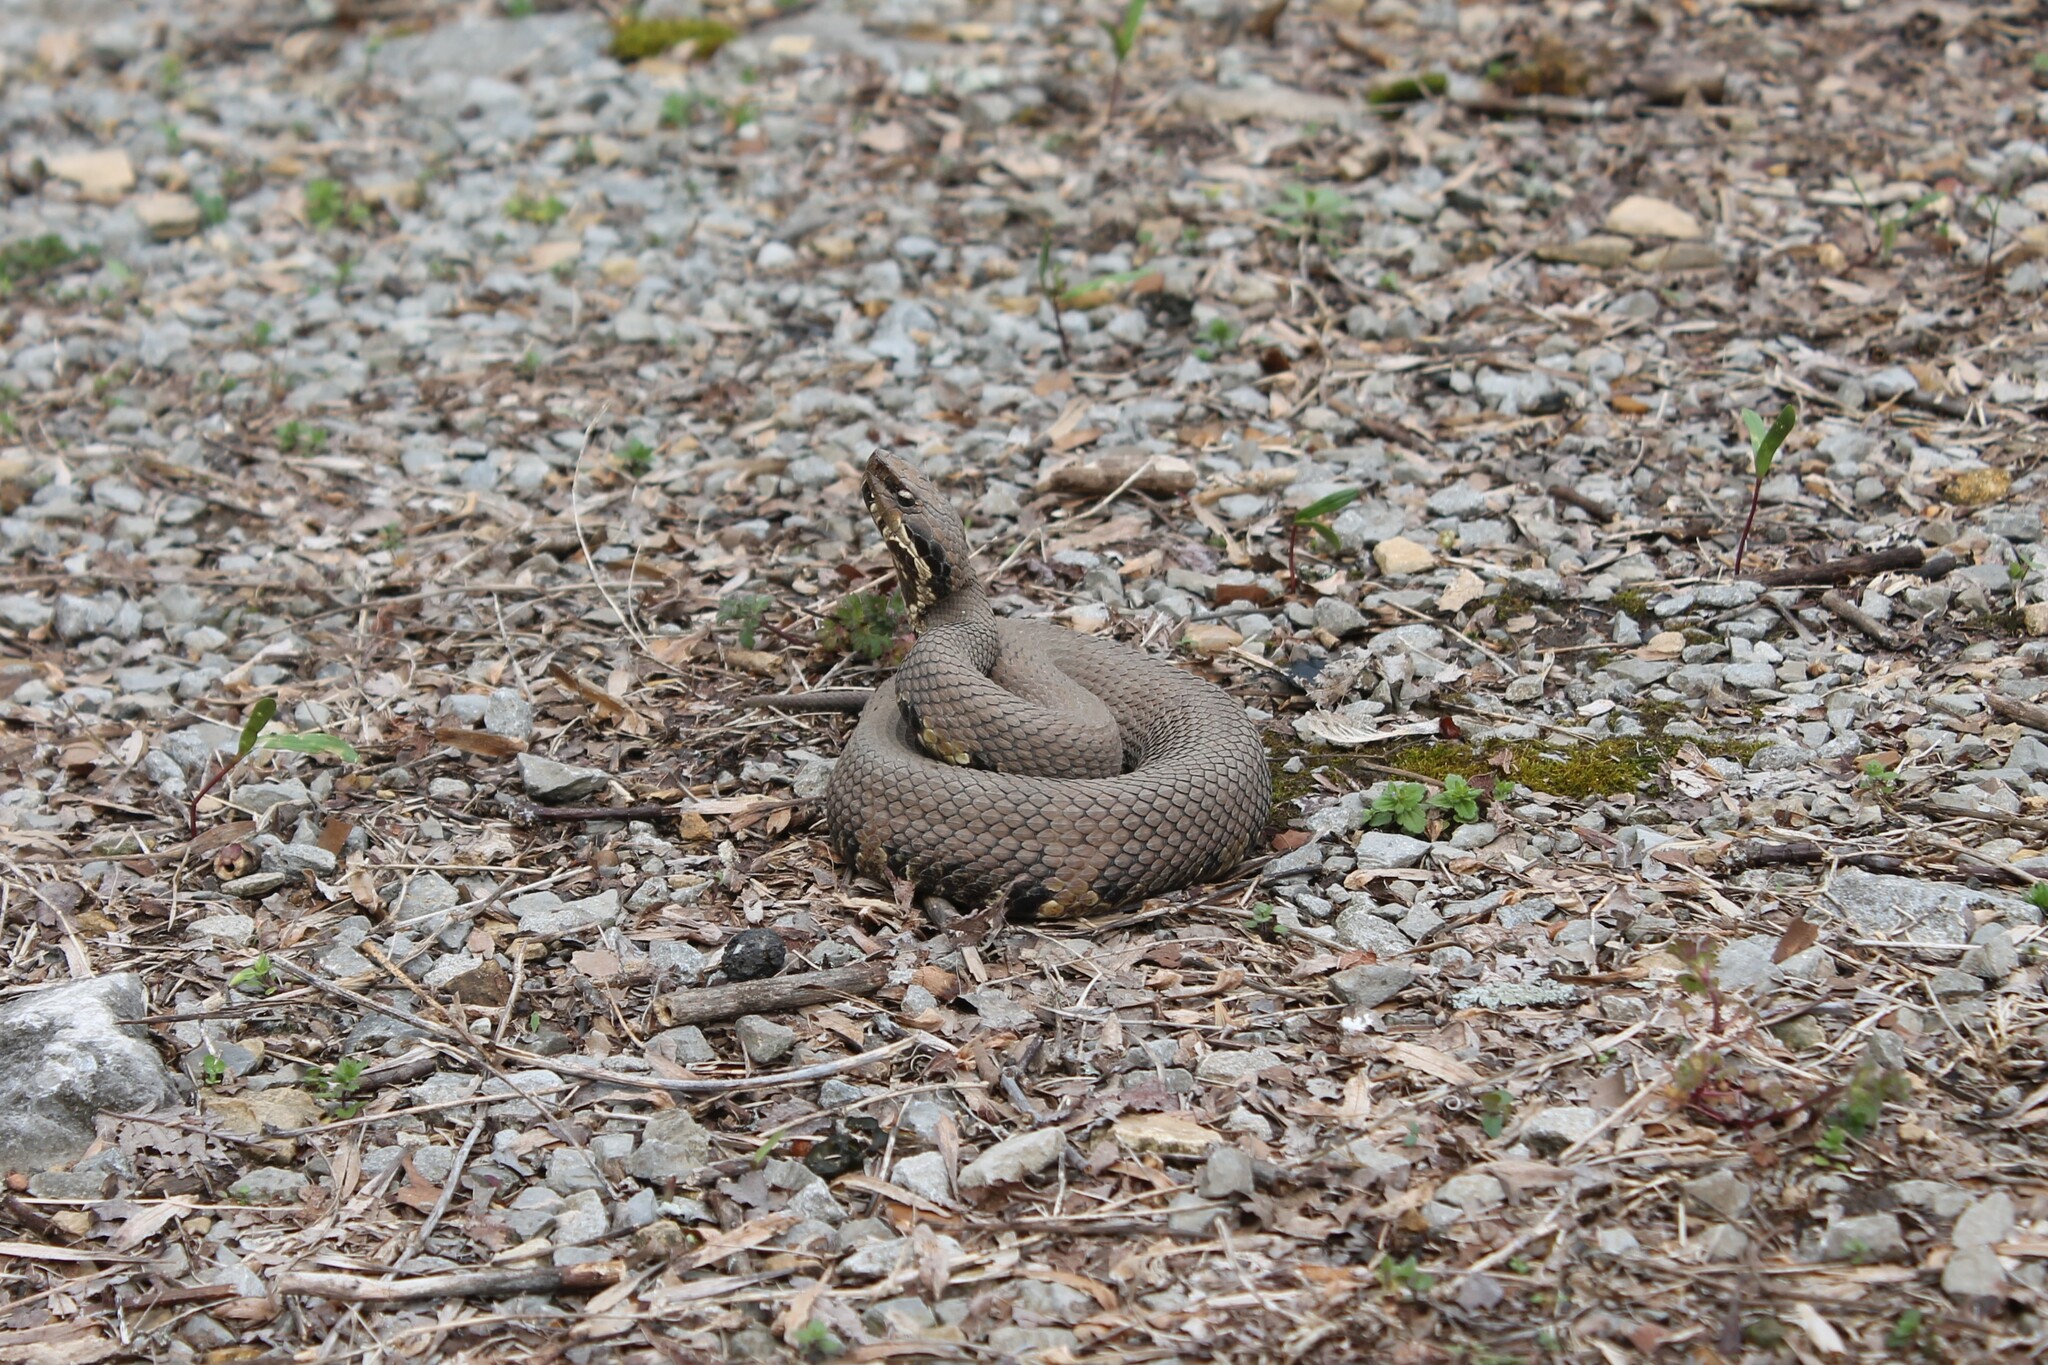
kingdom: Animalia
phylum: Chordata
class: Squamata
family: Viperidae
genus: Agkistrodon
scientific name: Agkistrodon piscivorus
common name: Cottonmouth
